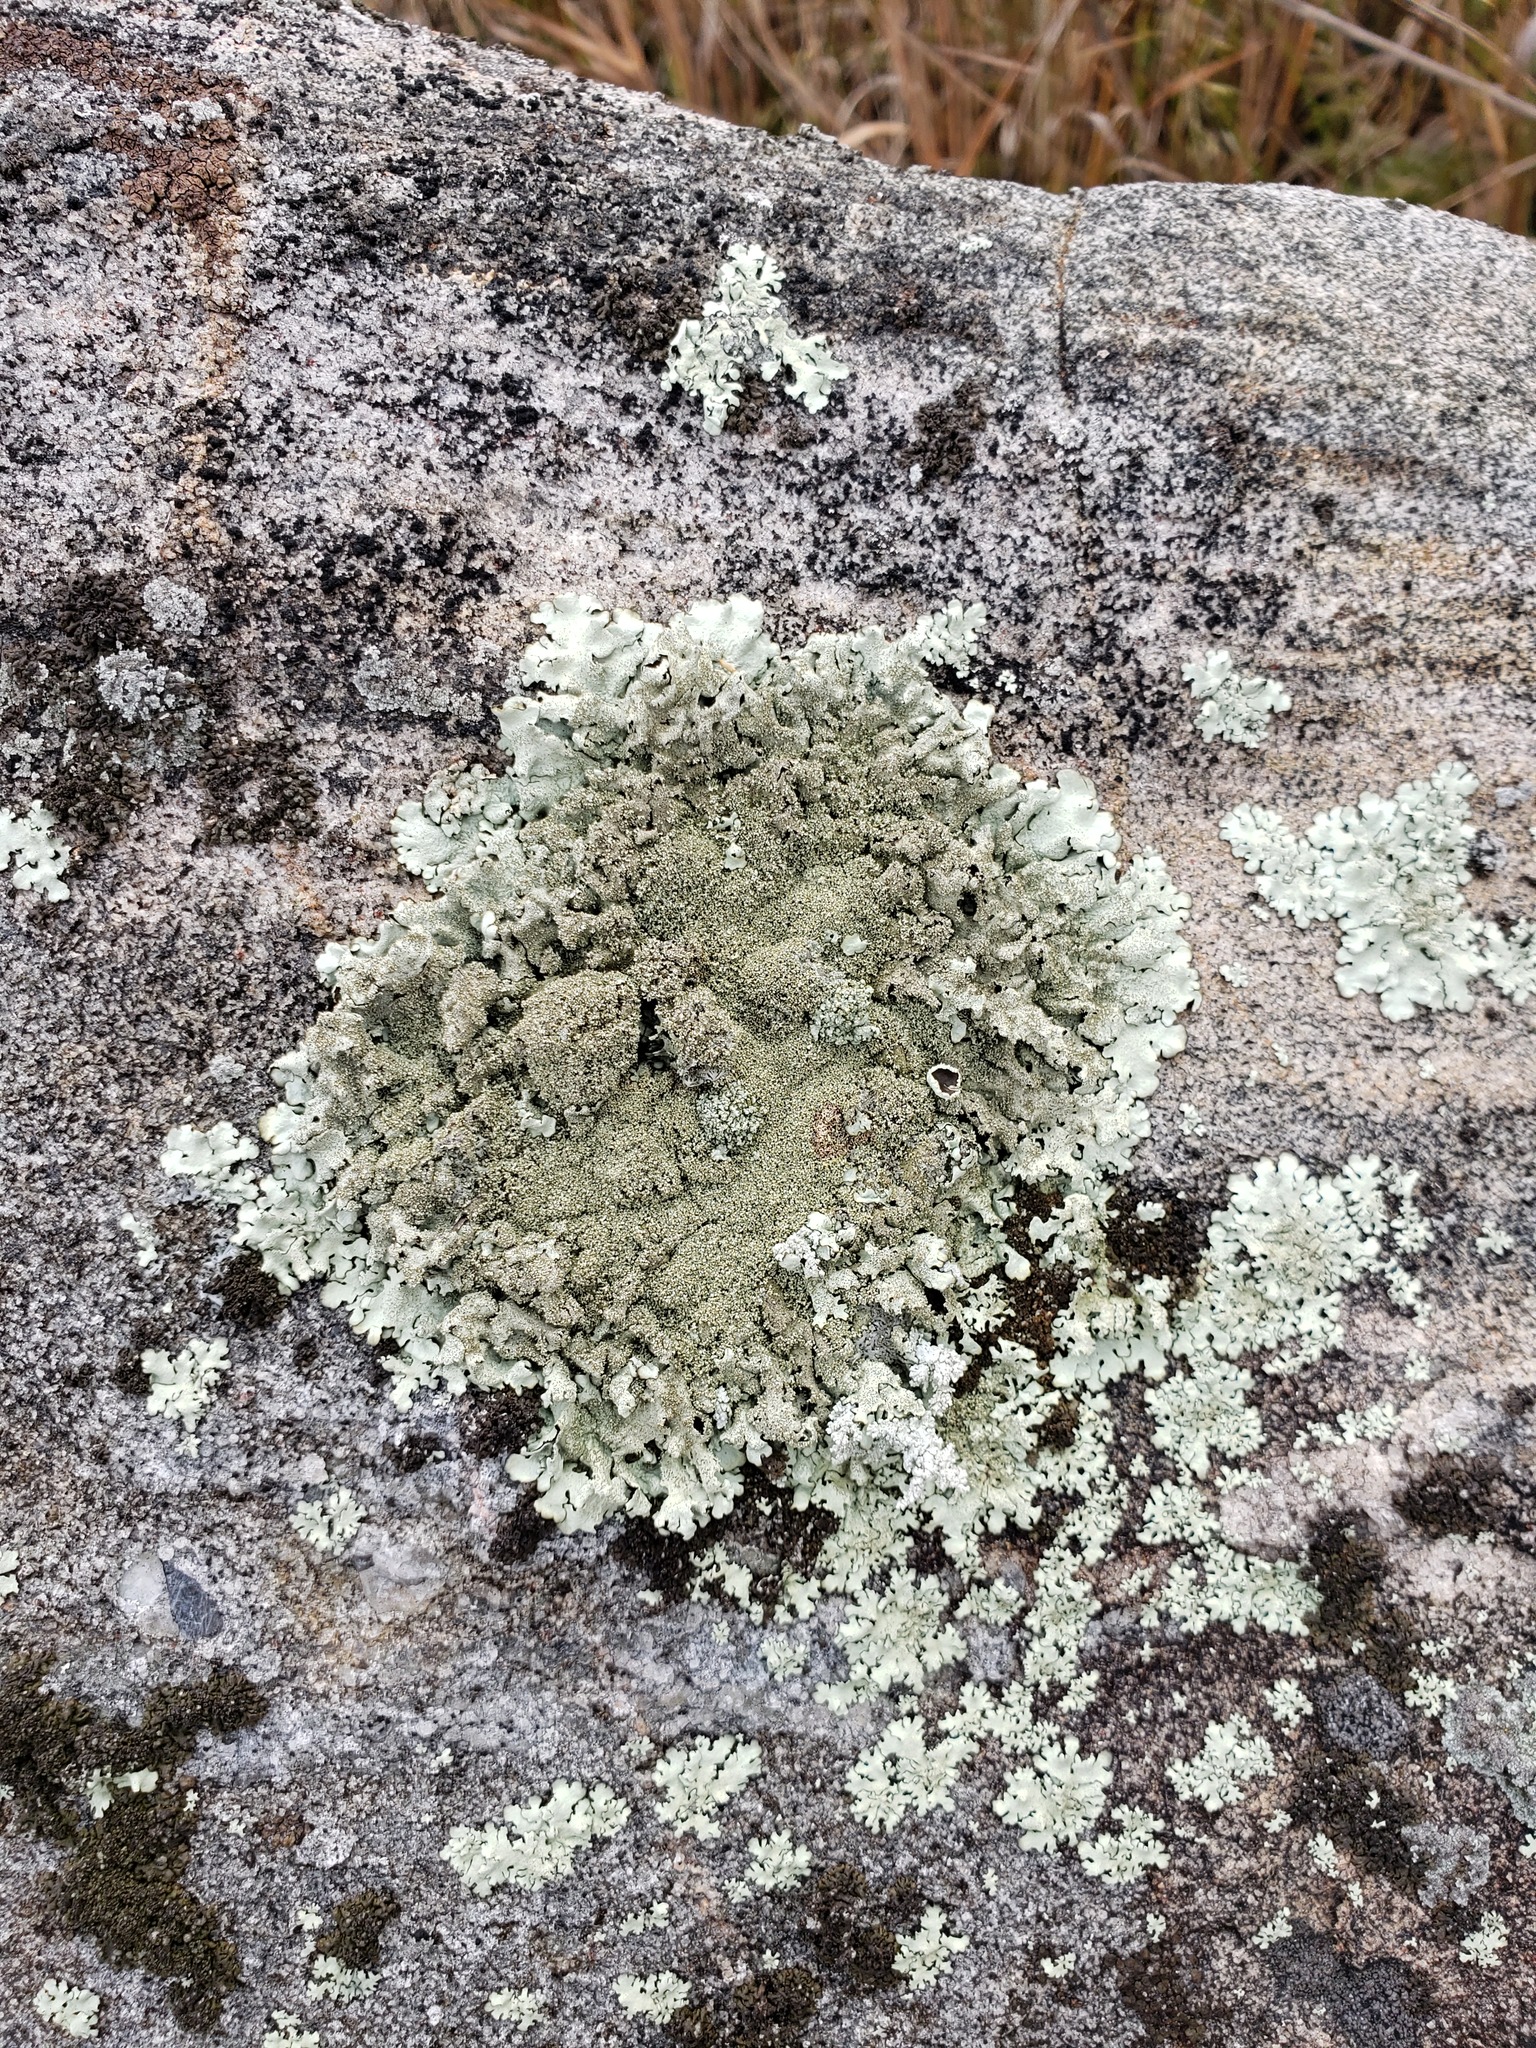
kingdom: Fungi
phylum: Ascomycota
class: Lecanoromycetes
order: Lecanorales
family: Parmeliaceae
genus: Xanthoparmelia
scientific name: Xanthoparmelia conspersa
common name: Peppered rock shield
